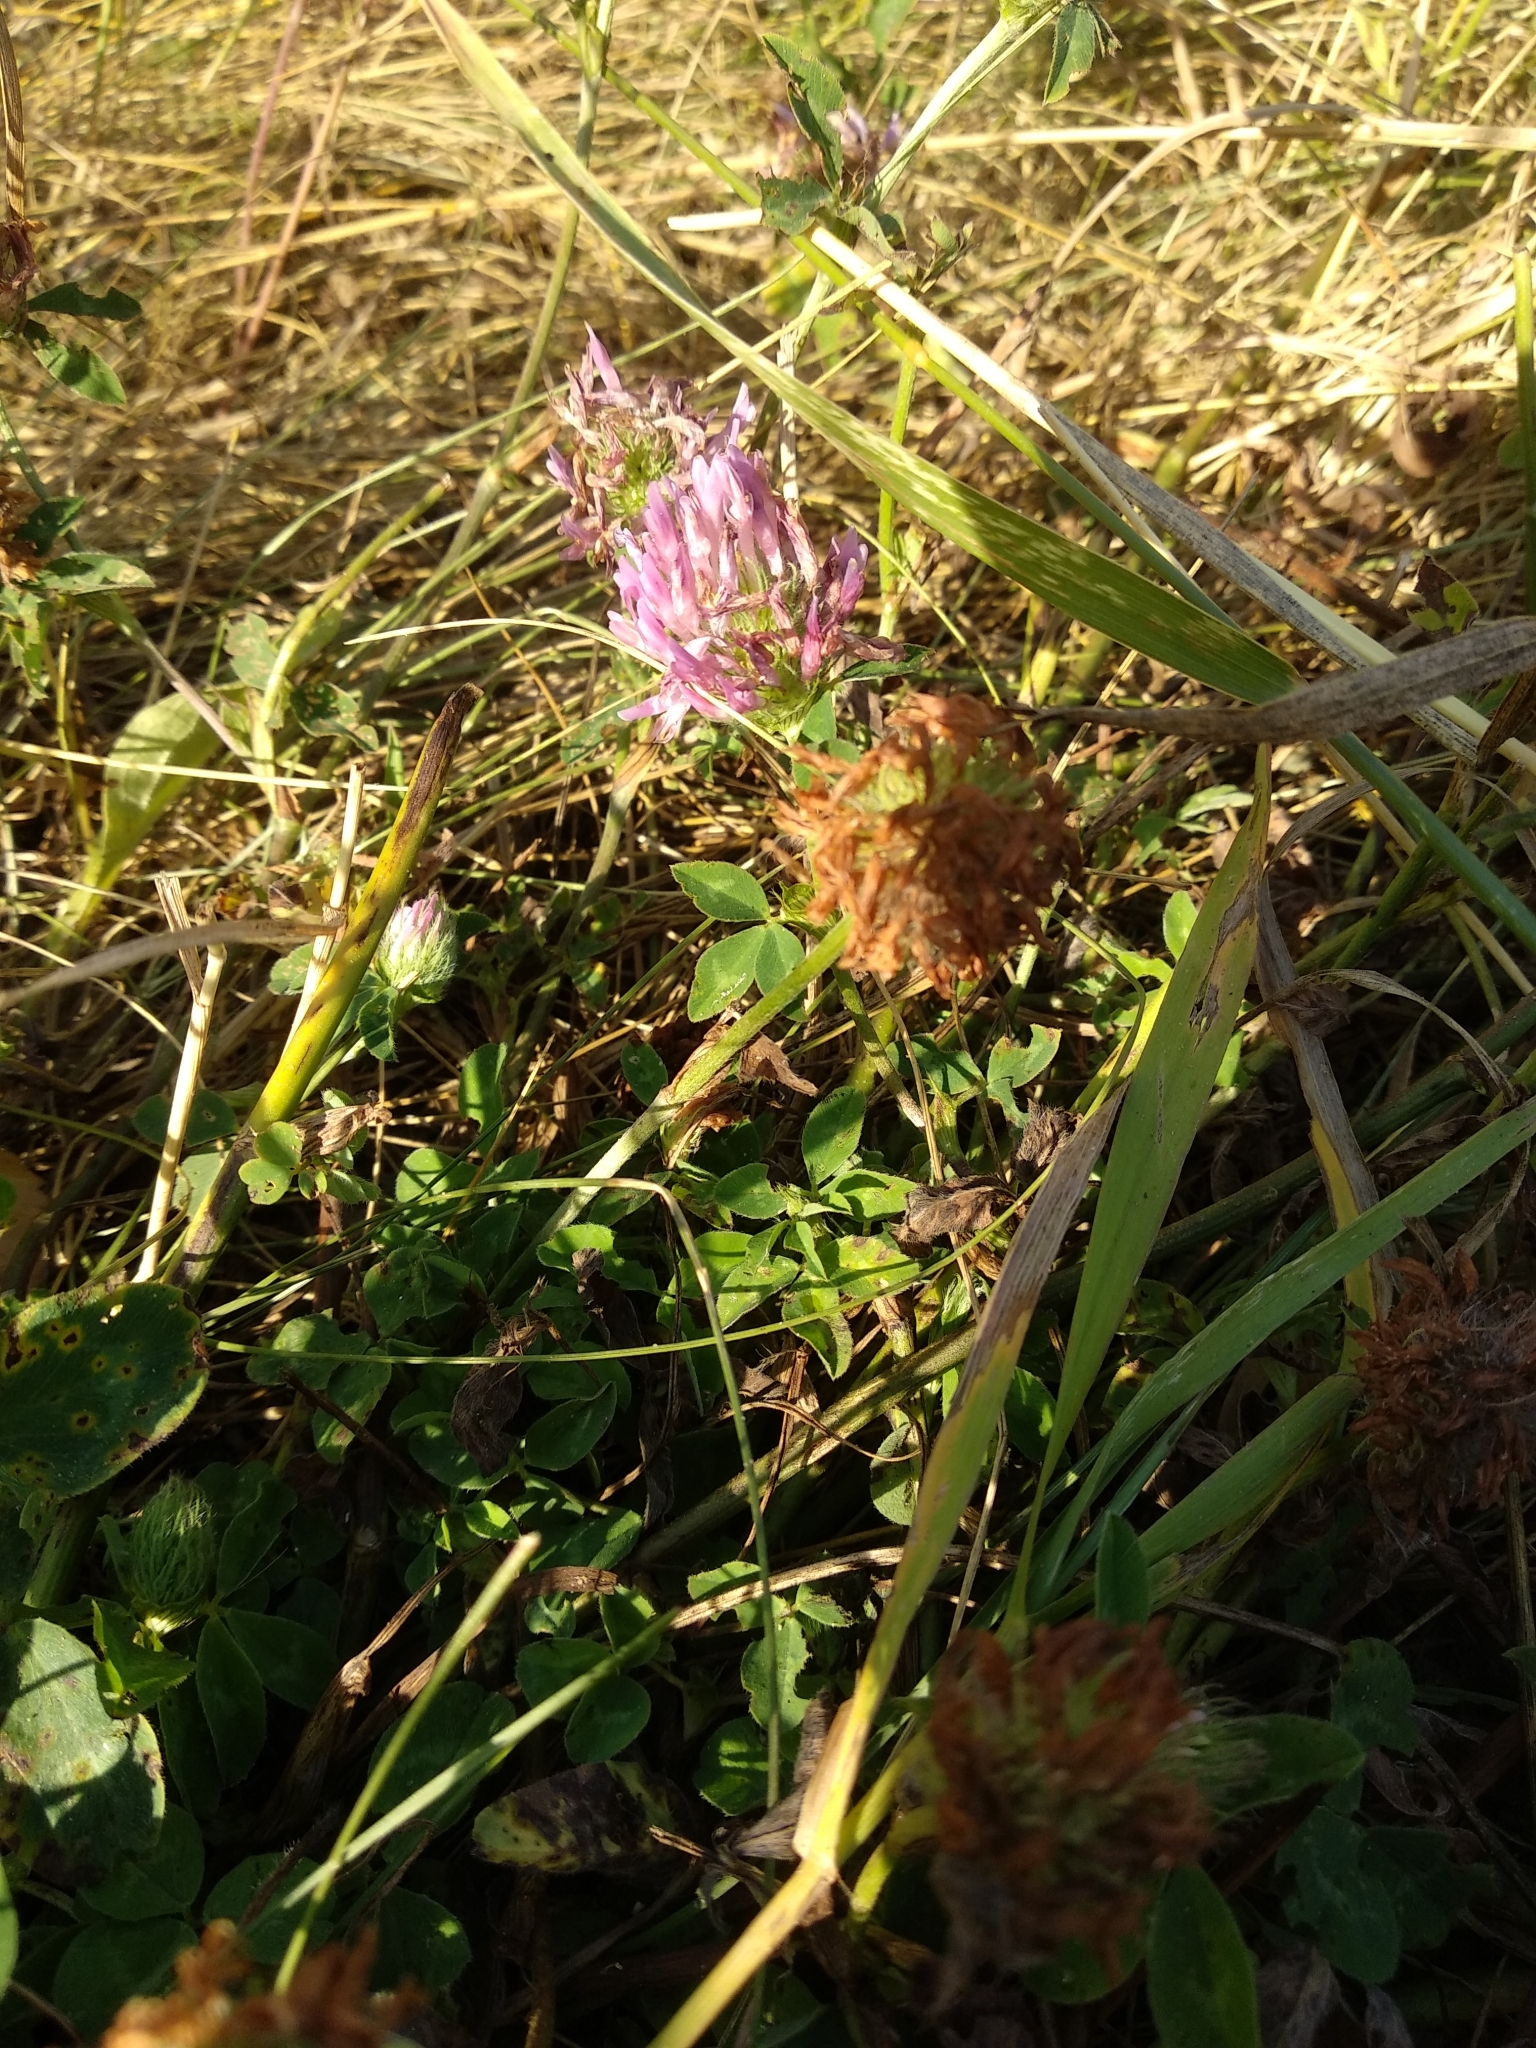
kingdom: Plantae
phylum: Tracheophyta
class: Magnoliopsida
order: Fabales
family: Fabaceae
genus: Trifolium
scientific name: Trifolium pratense
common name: Red clover
